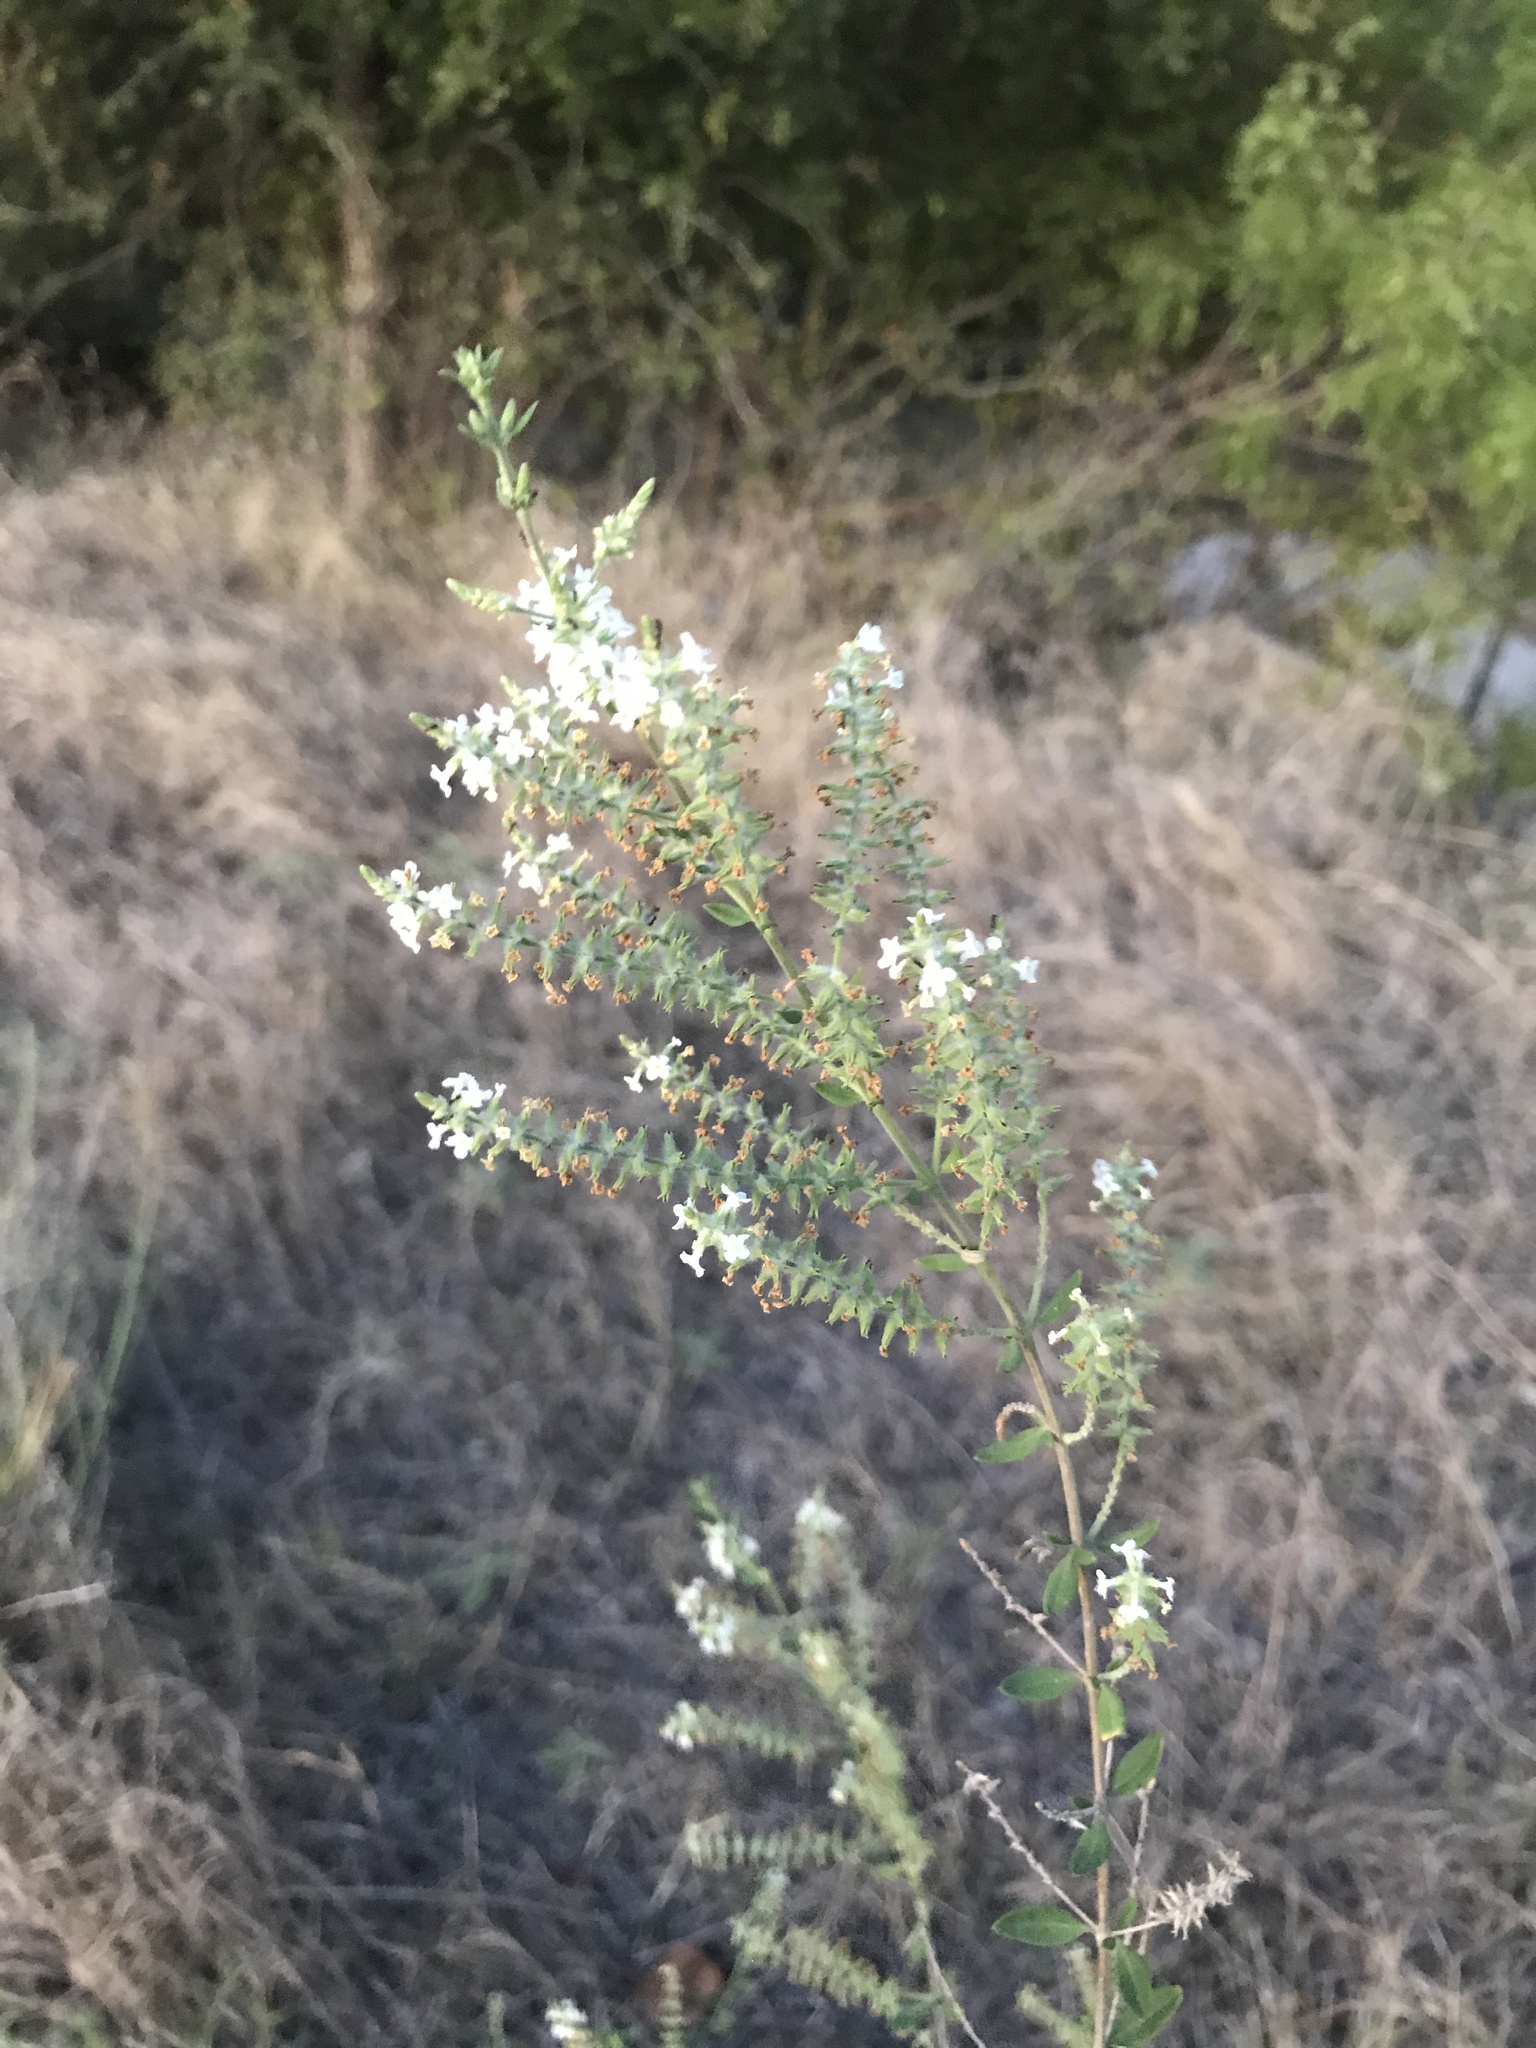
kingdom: Plantae
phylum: Tracheophyta
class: Magnoliopsida
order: Lamiales
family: Verbenaceae
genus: Aloysia
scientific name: Aloysia gratissima
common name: Common bee-brush
